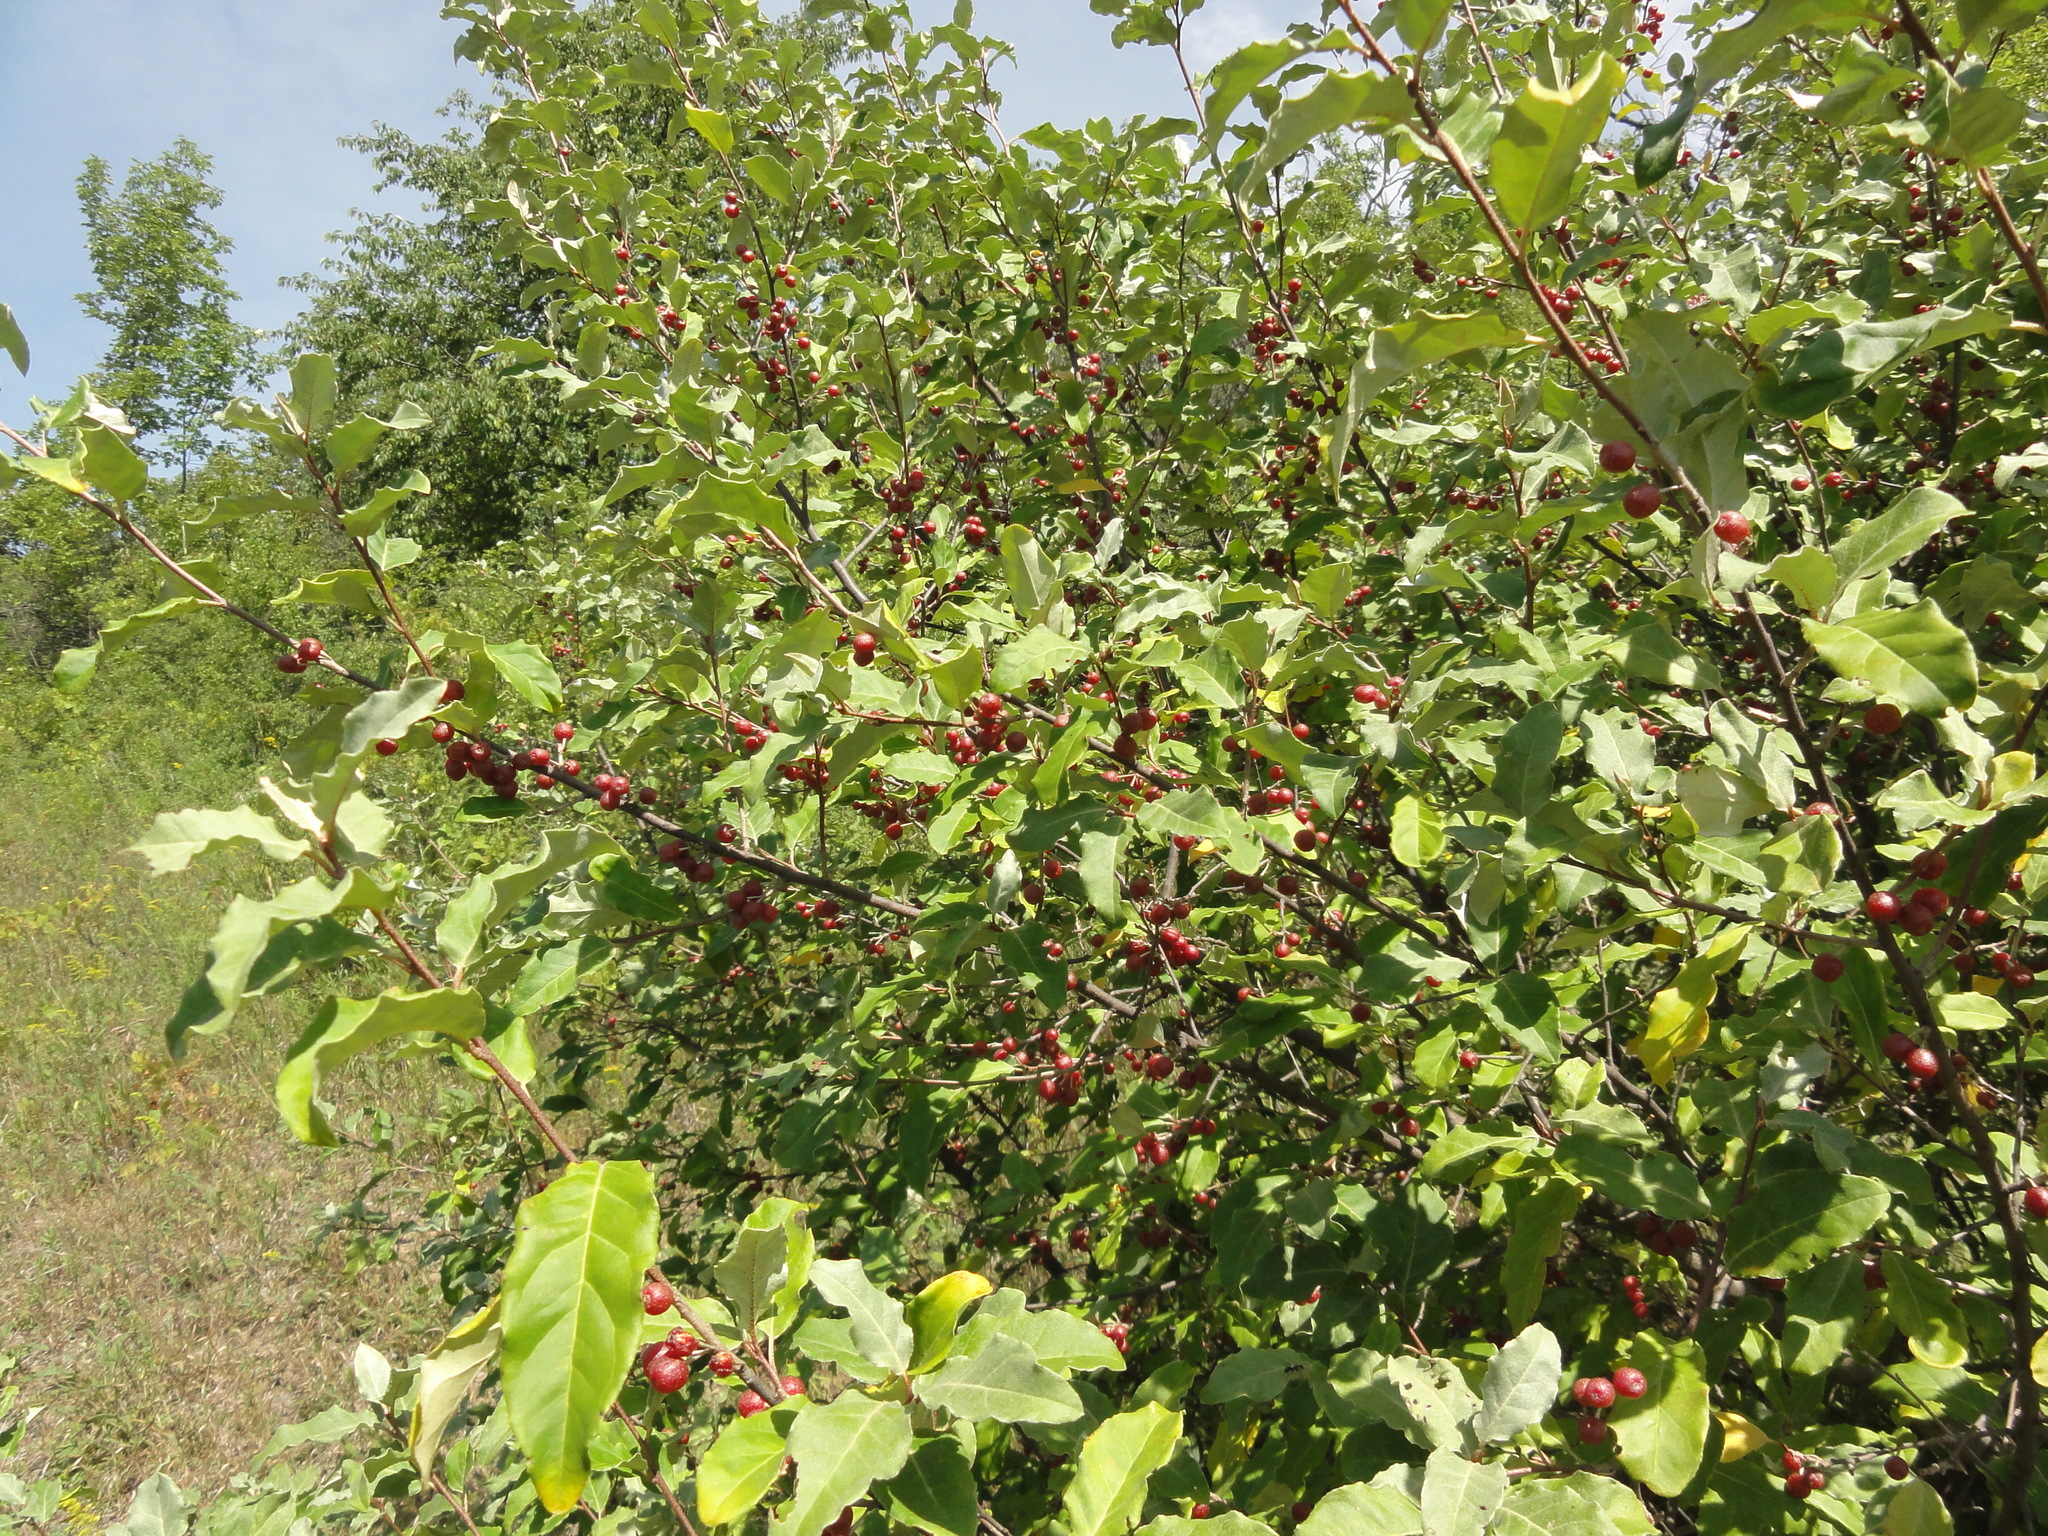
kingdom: Plantae
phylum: Tracheophyta
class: Magnoliopsida
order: Rosales
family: Elaeagnaceae
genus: Elaeagnus
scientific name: Elaeagnus umbellata
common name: Autumn olive
